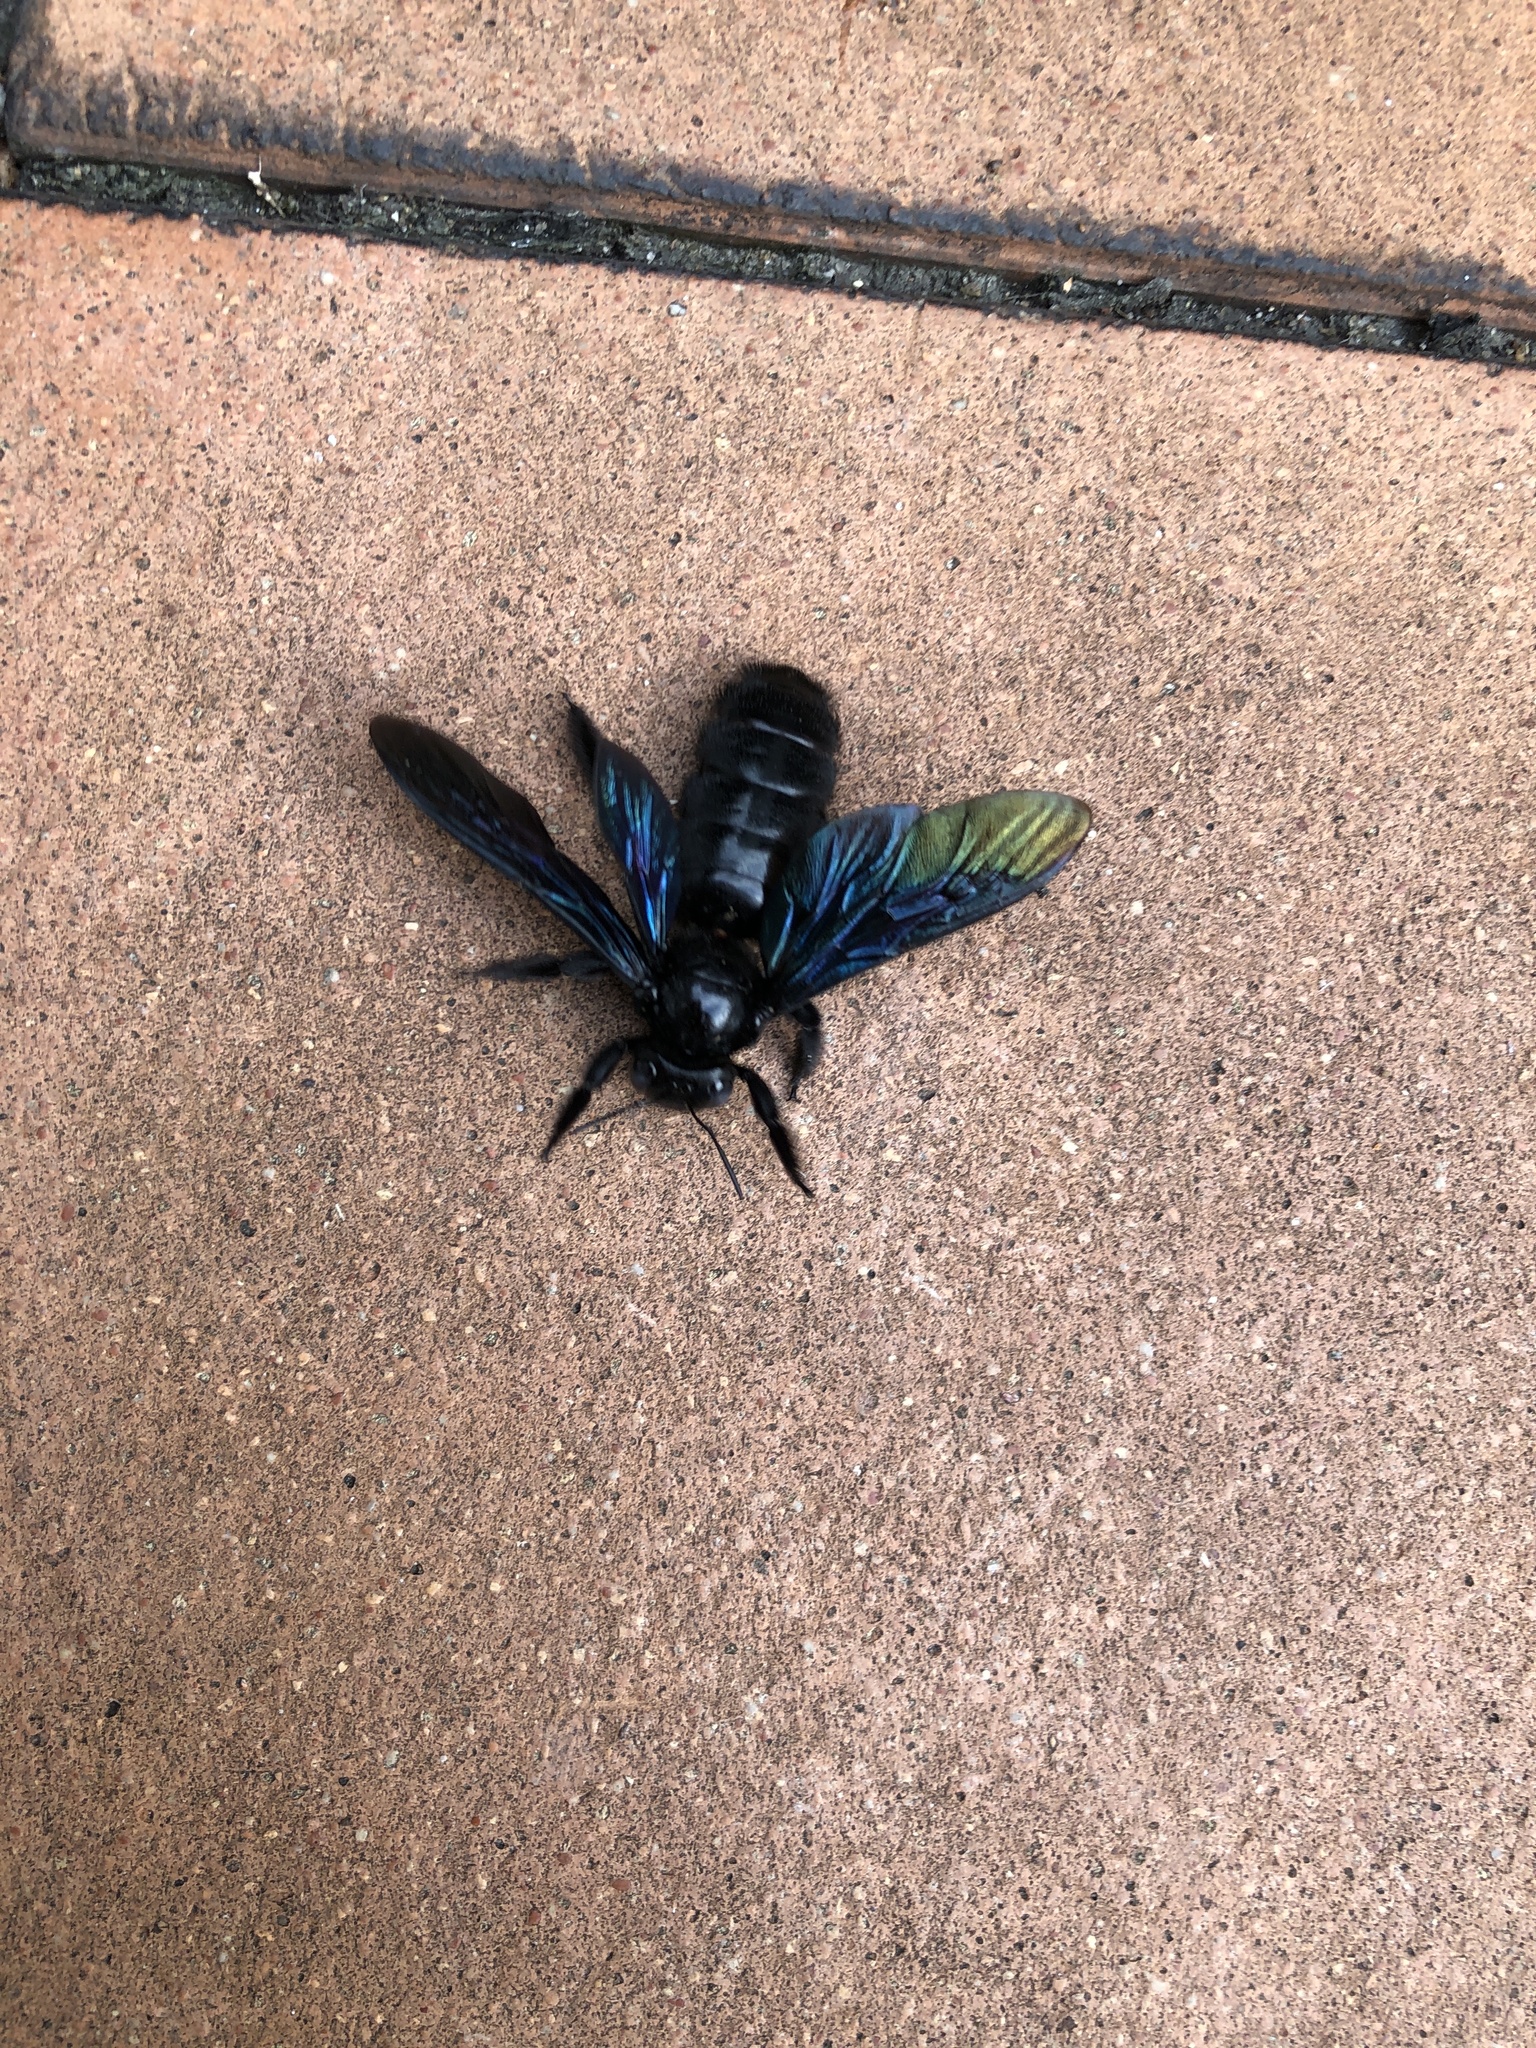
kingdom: Animalia
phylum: Arthropoda
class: Insecta
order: Hymenoptera
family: Apidae
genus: Xylocopa
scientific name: Xylocopa nasalis
